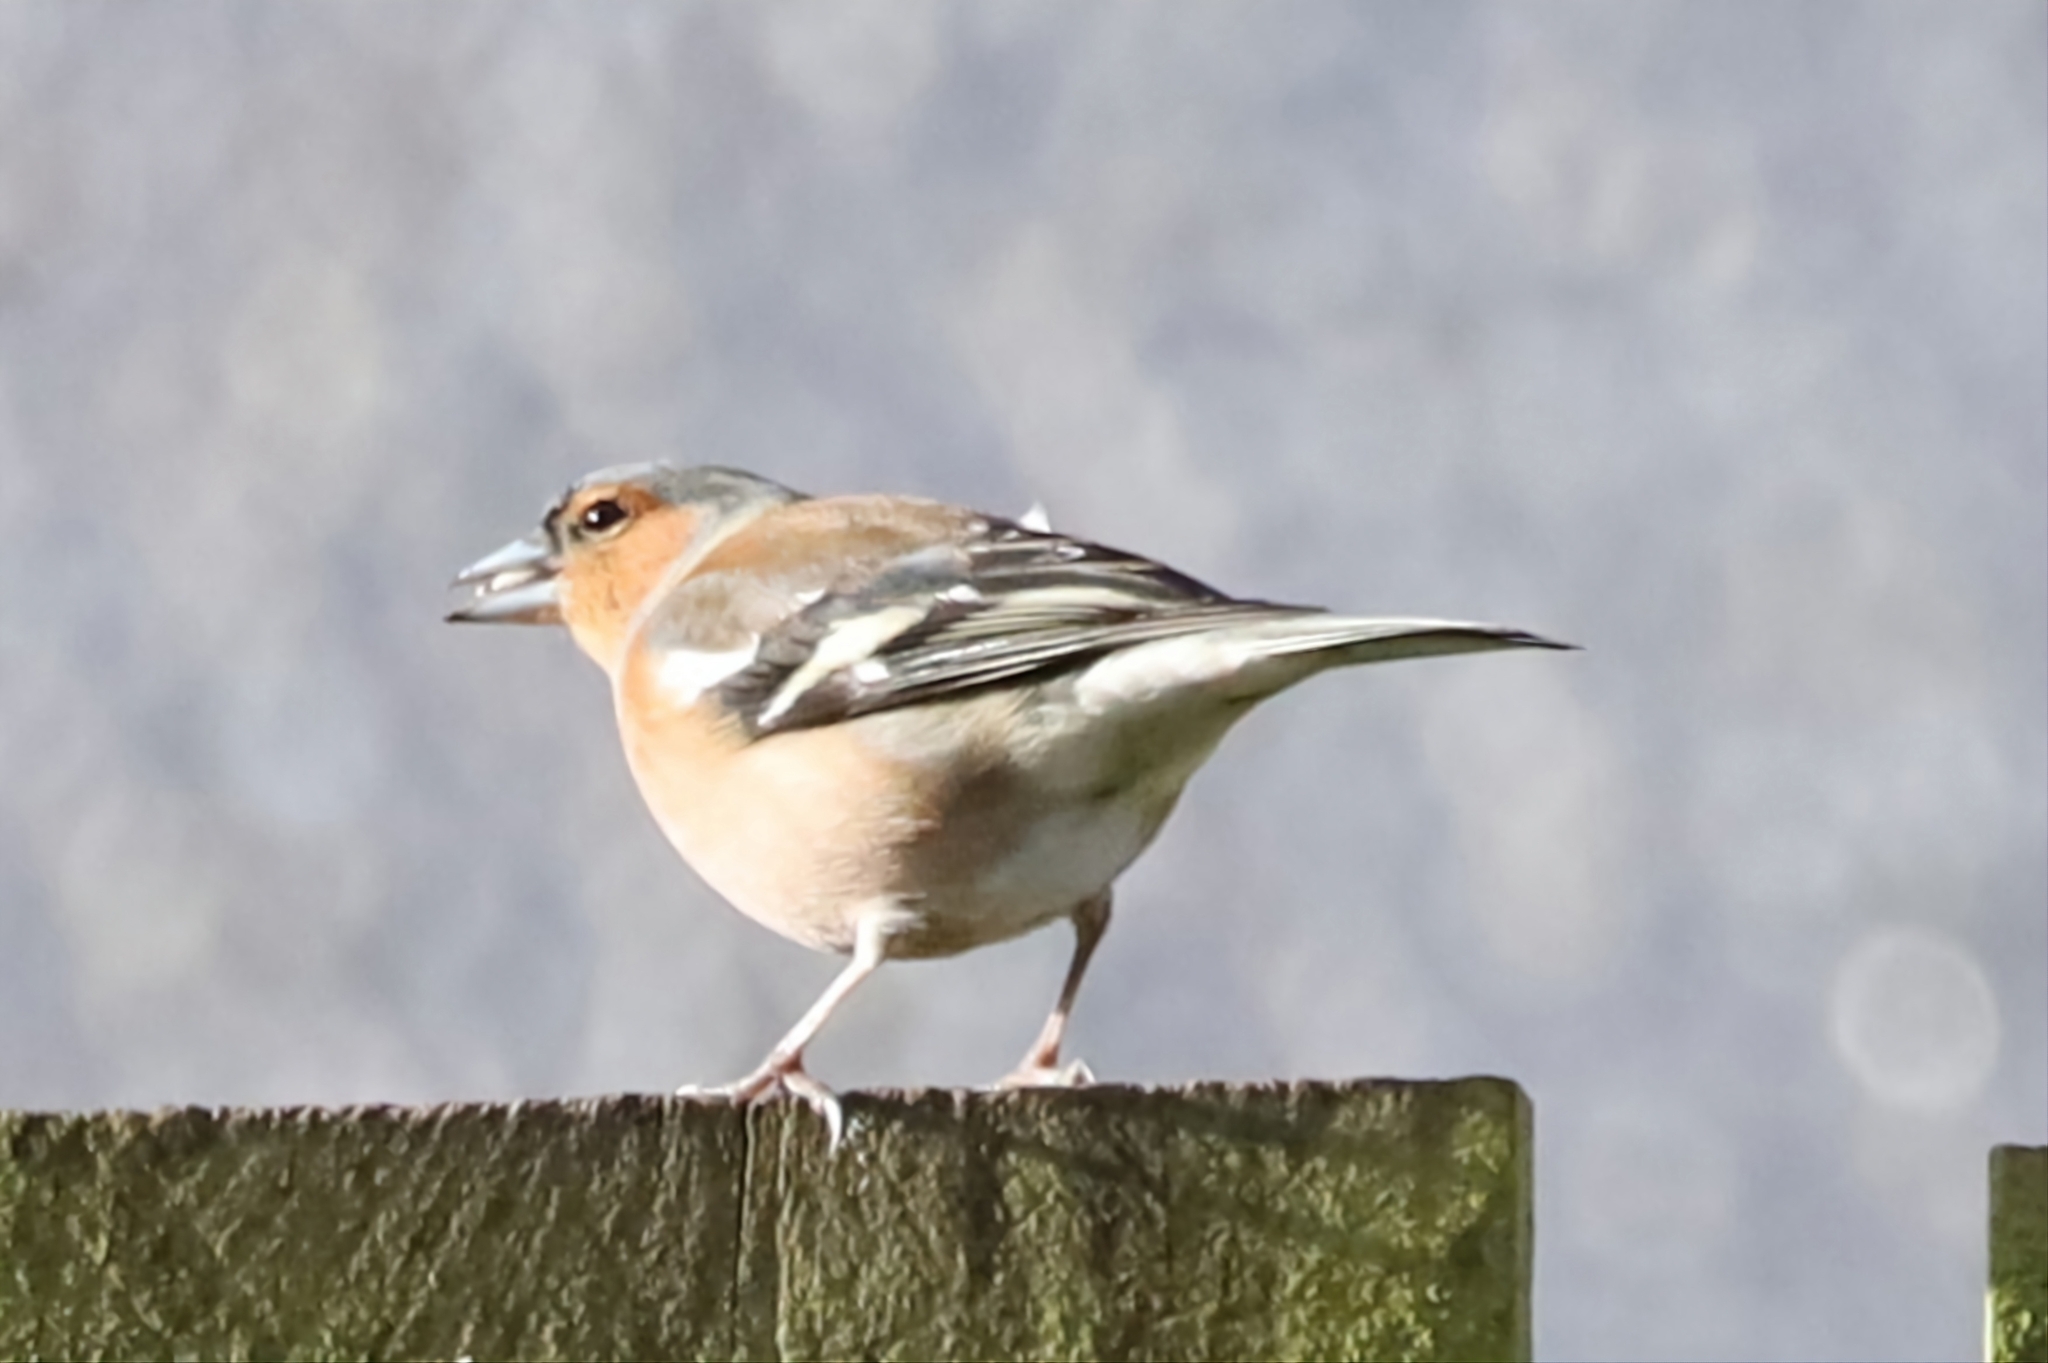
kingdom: Animalia
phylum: Chordata
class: Aves
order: Passeriformes
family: Fringillidae
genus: Fringilla
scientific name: Fringilla coelebs
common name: Common chaffinch
